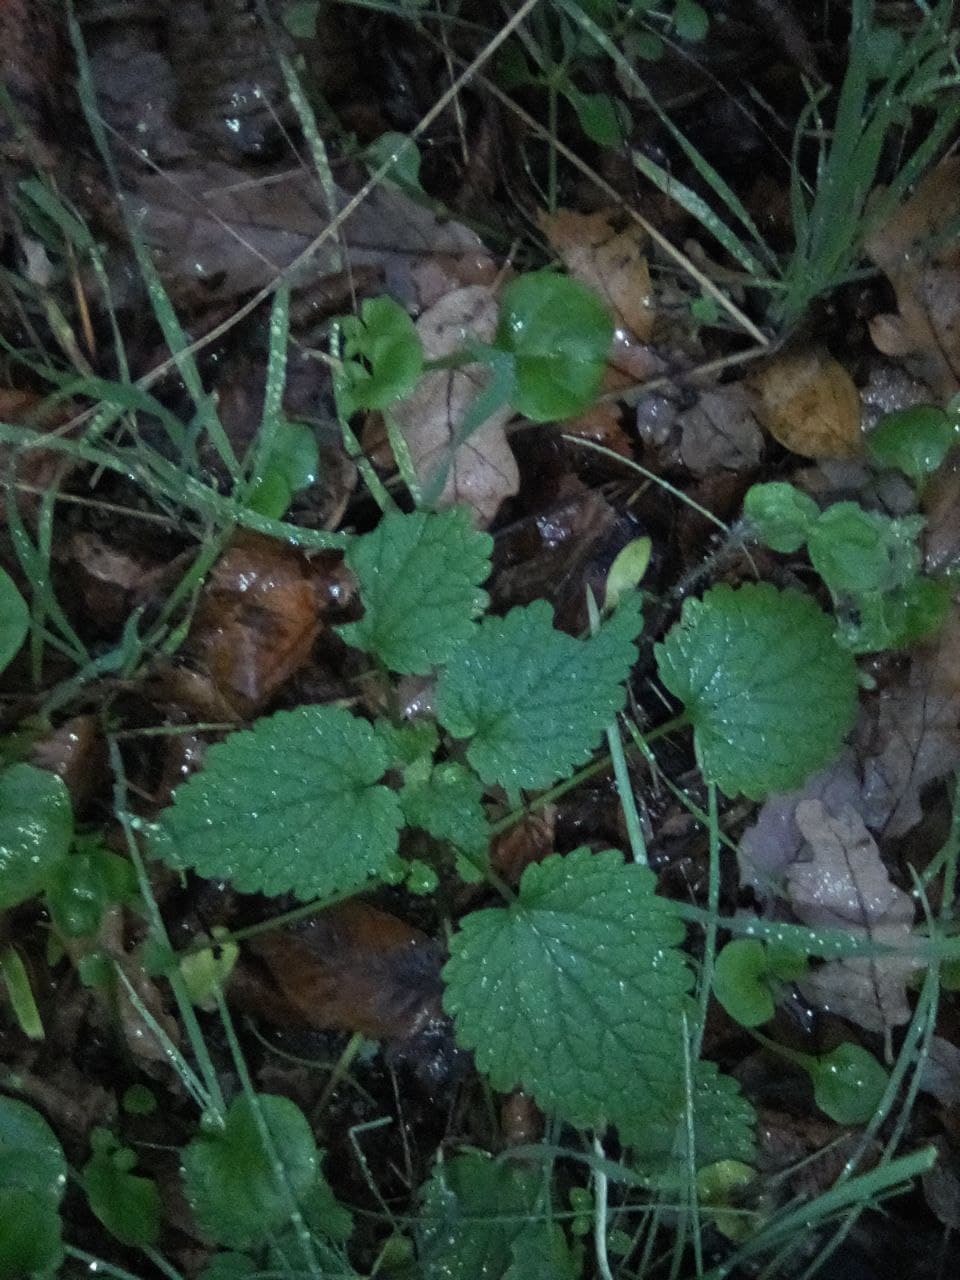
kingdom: Plantae
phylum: Tracheophyta
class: Magnoliopsida
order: Lamiales
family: Lamiaceae
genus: Lamium
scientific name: Lamium maculatum
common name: Spotted dead-nettle
